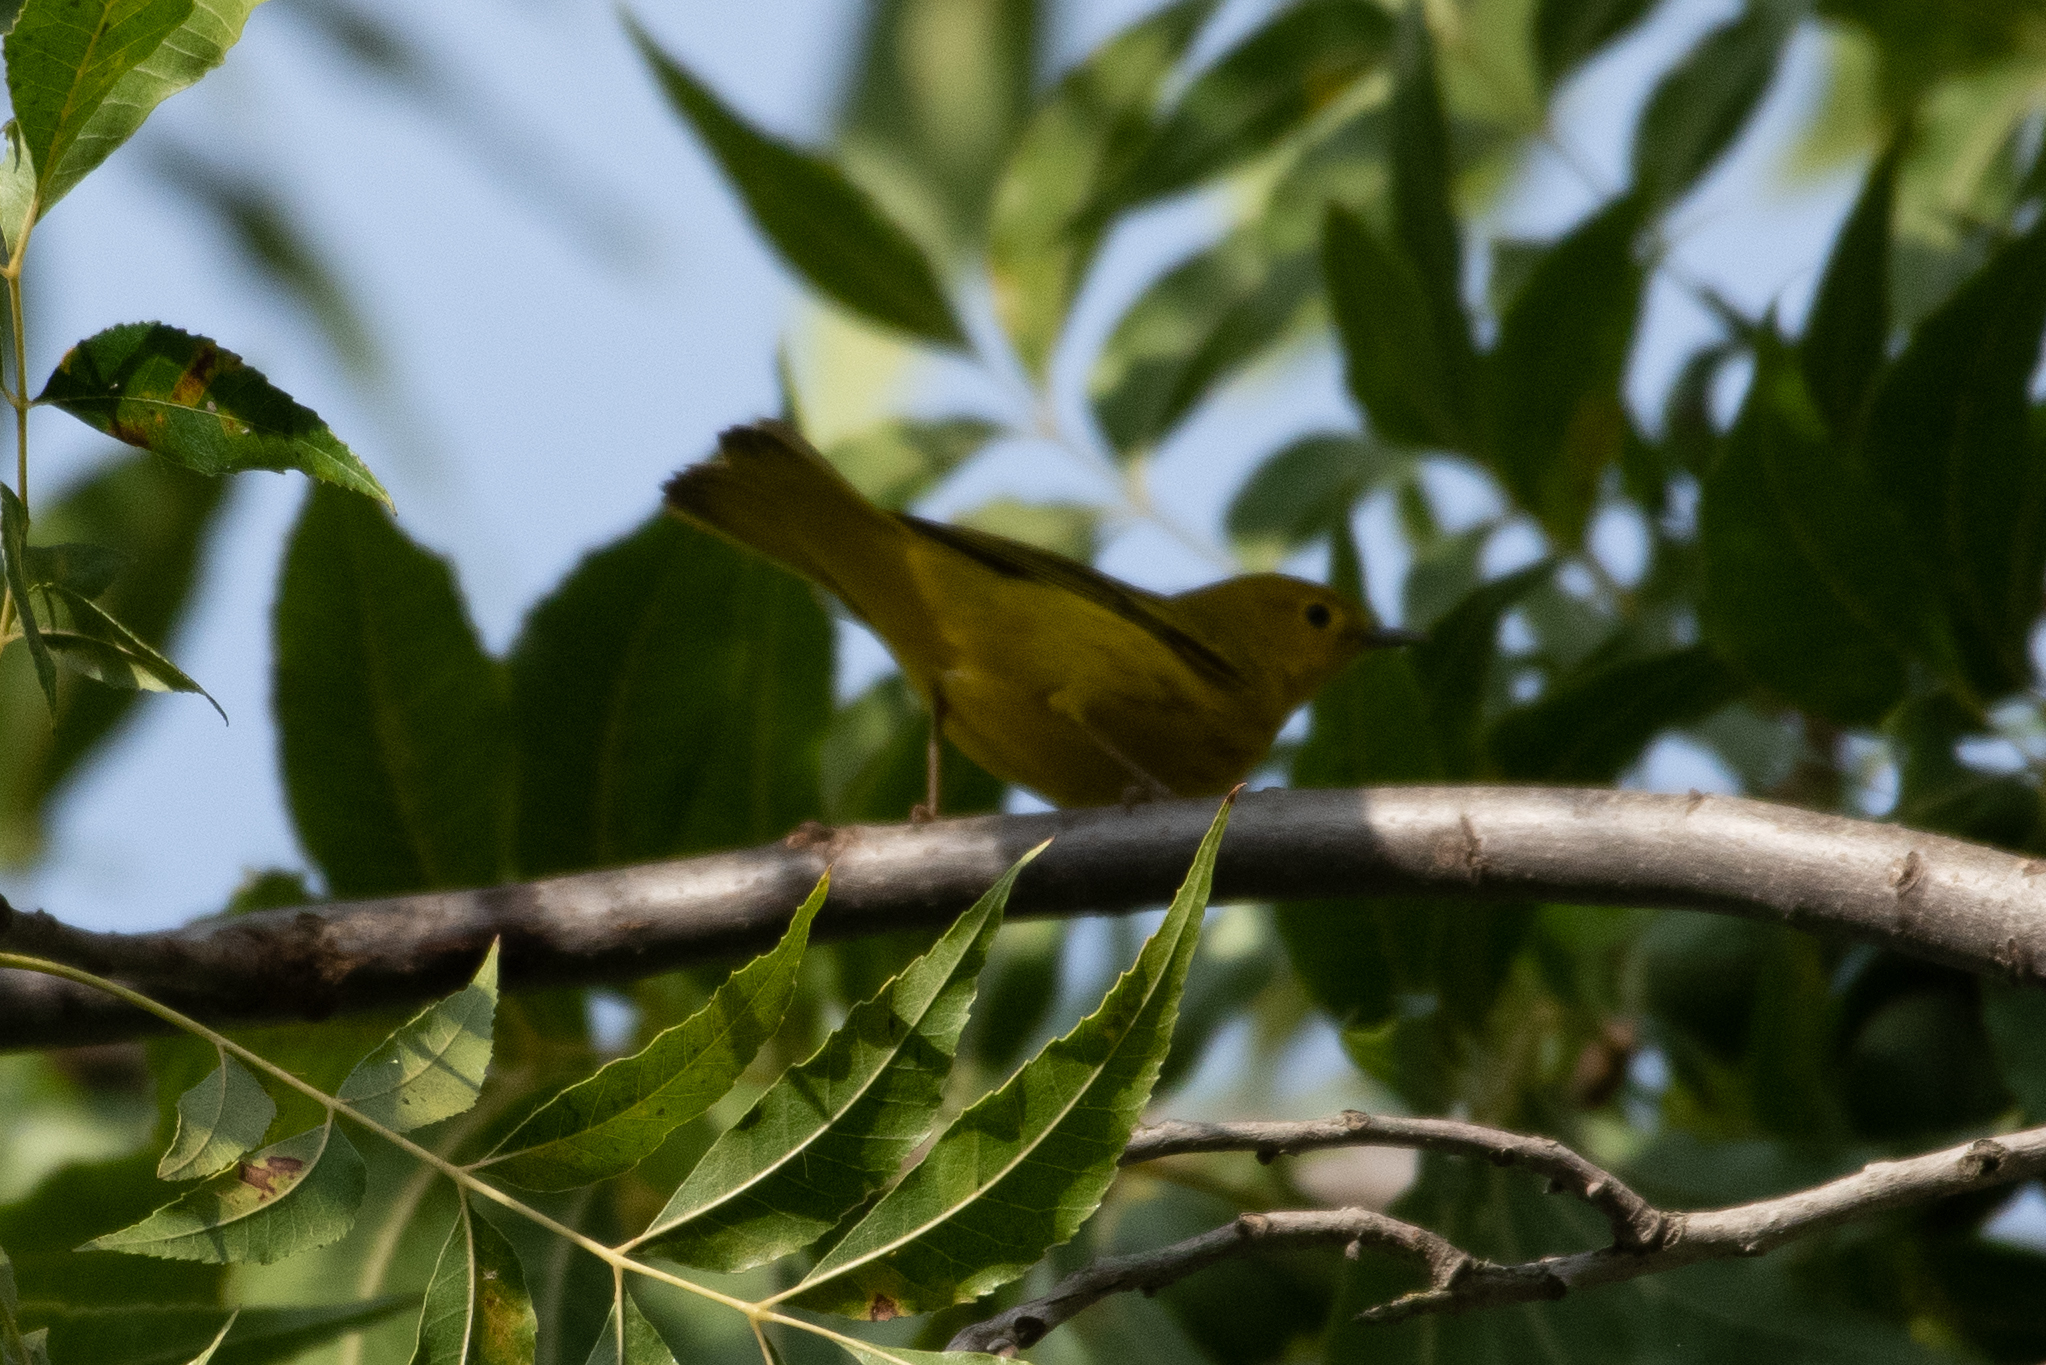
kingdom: Animalia
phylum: Chordata
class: Aves
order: Passeriformes
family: Parulidae
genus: Setophaga
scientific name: Setophaga petechia
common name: Yellow warbler
